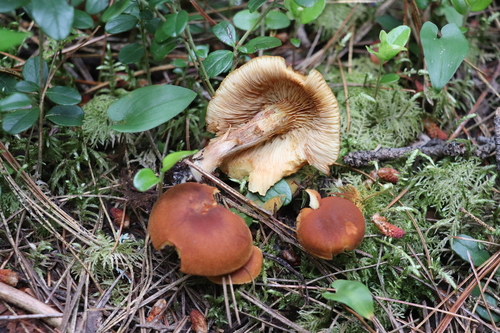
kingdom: Fungi
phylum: Basidiomycota
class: Agaricomycetes
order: Agaricales
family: Hymenogastraceae
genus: Gymnopilus
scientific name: Gymnopilus luteofolius
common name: Yellow-gilled gymnopilus
